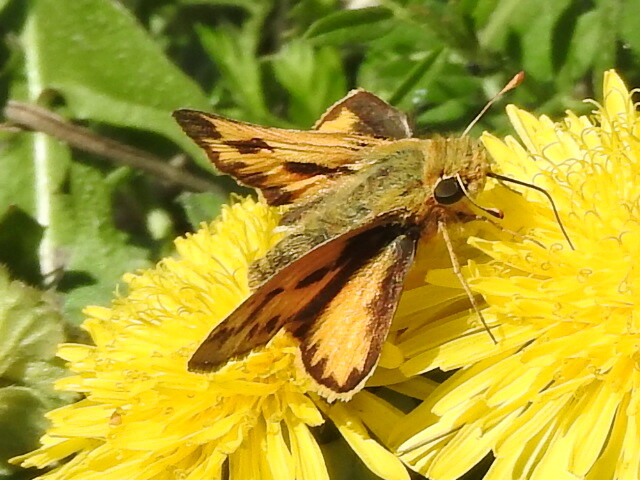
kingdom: Animalia
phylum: Arthropoda
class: Insecta
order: Lepidoptera
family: Hesperiidae
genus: Hylephila
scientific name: Hylephila phyleus
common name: Fiery skipper
